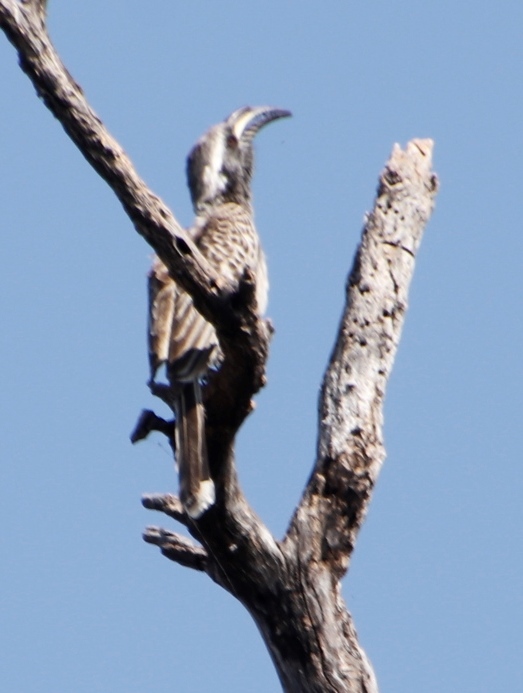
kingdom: Animalia
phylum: Chordata
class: Aves
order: Bucerotiformes
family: Bucerotidae
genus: Lophoceros
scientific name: Lophoceros nasutus
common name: African grey hornbill
